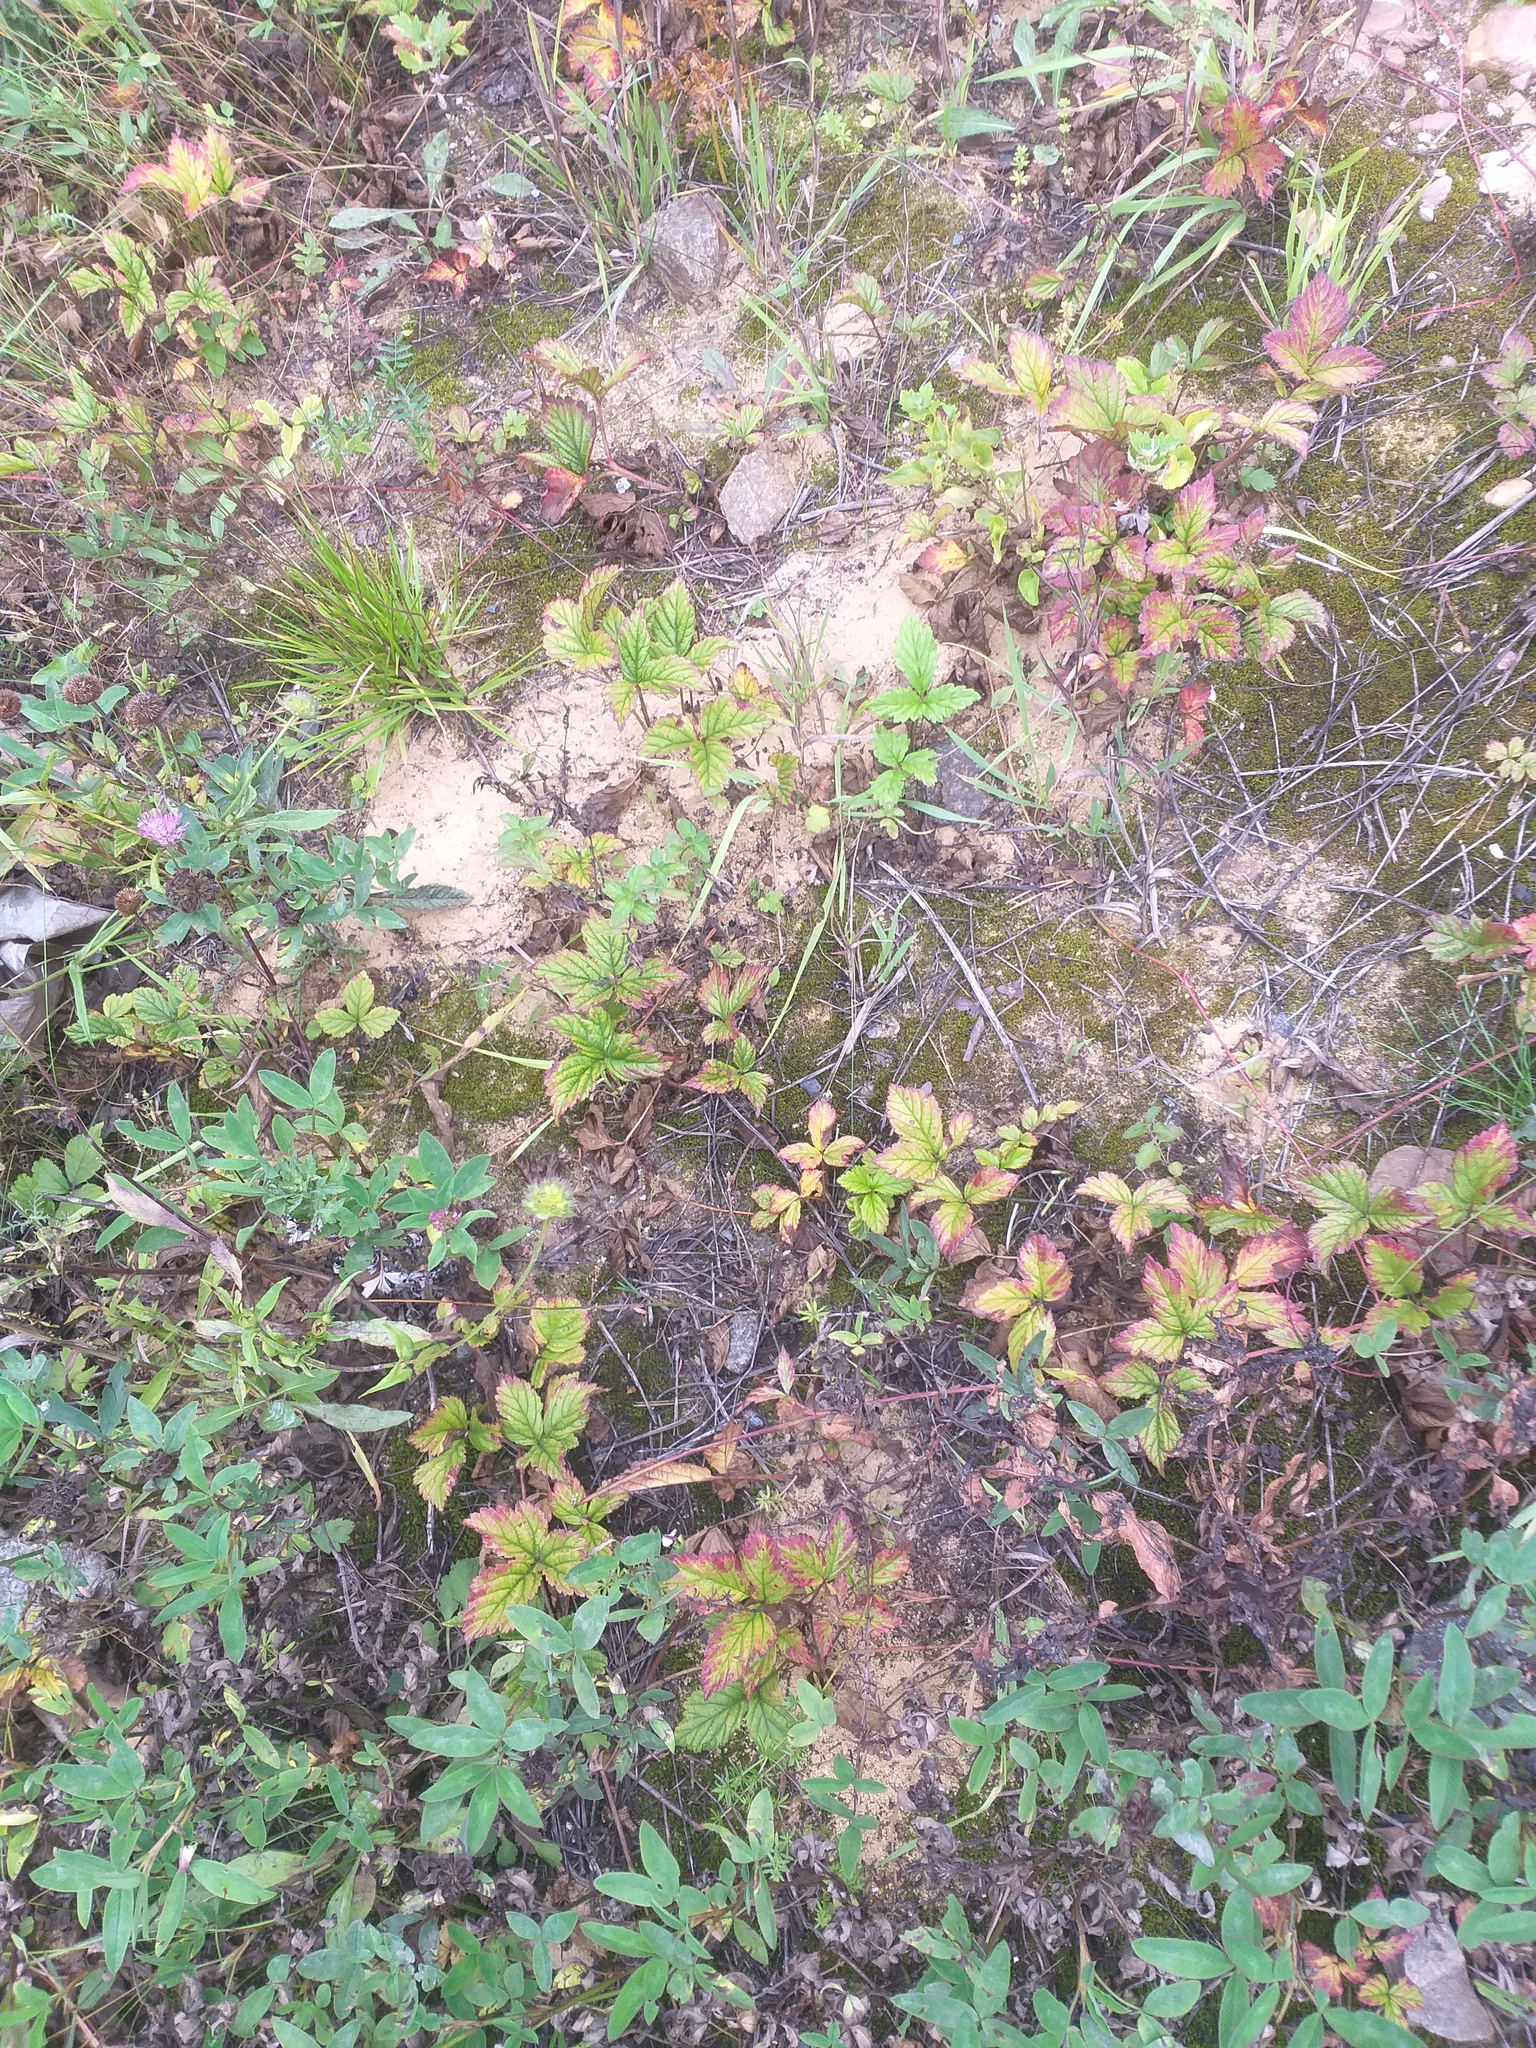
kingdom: Plantae
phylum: Tracheophyta
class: Magnoliopsida
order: Rosales
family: Rosaceae
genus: Rubus
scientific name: Rubus saxatilis
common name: Stone bramble
